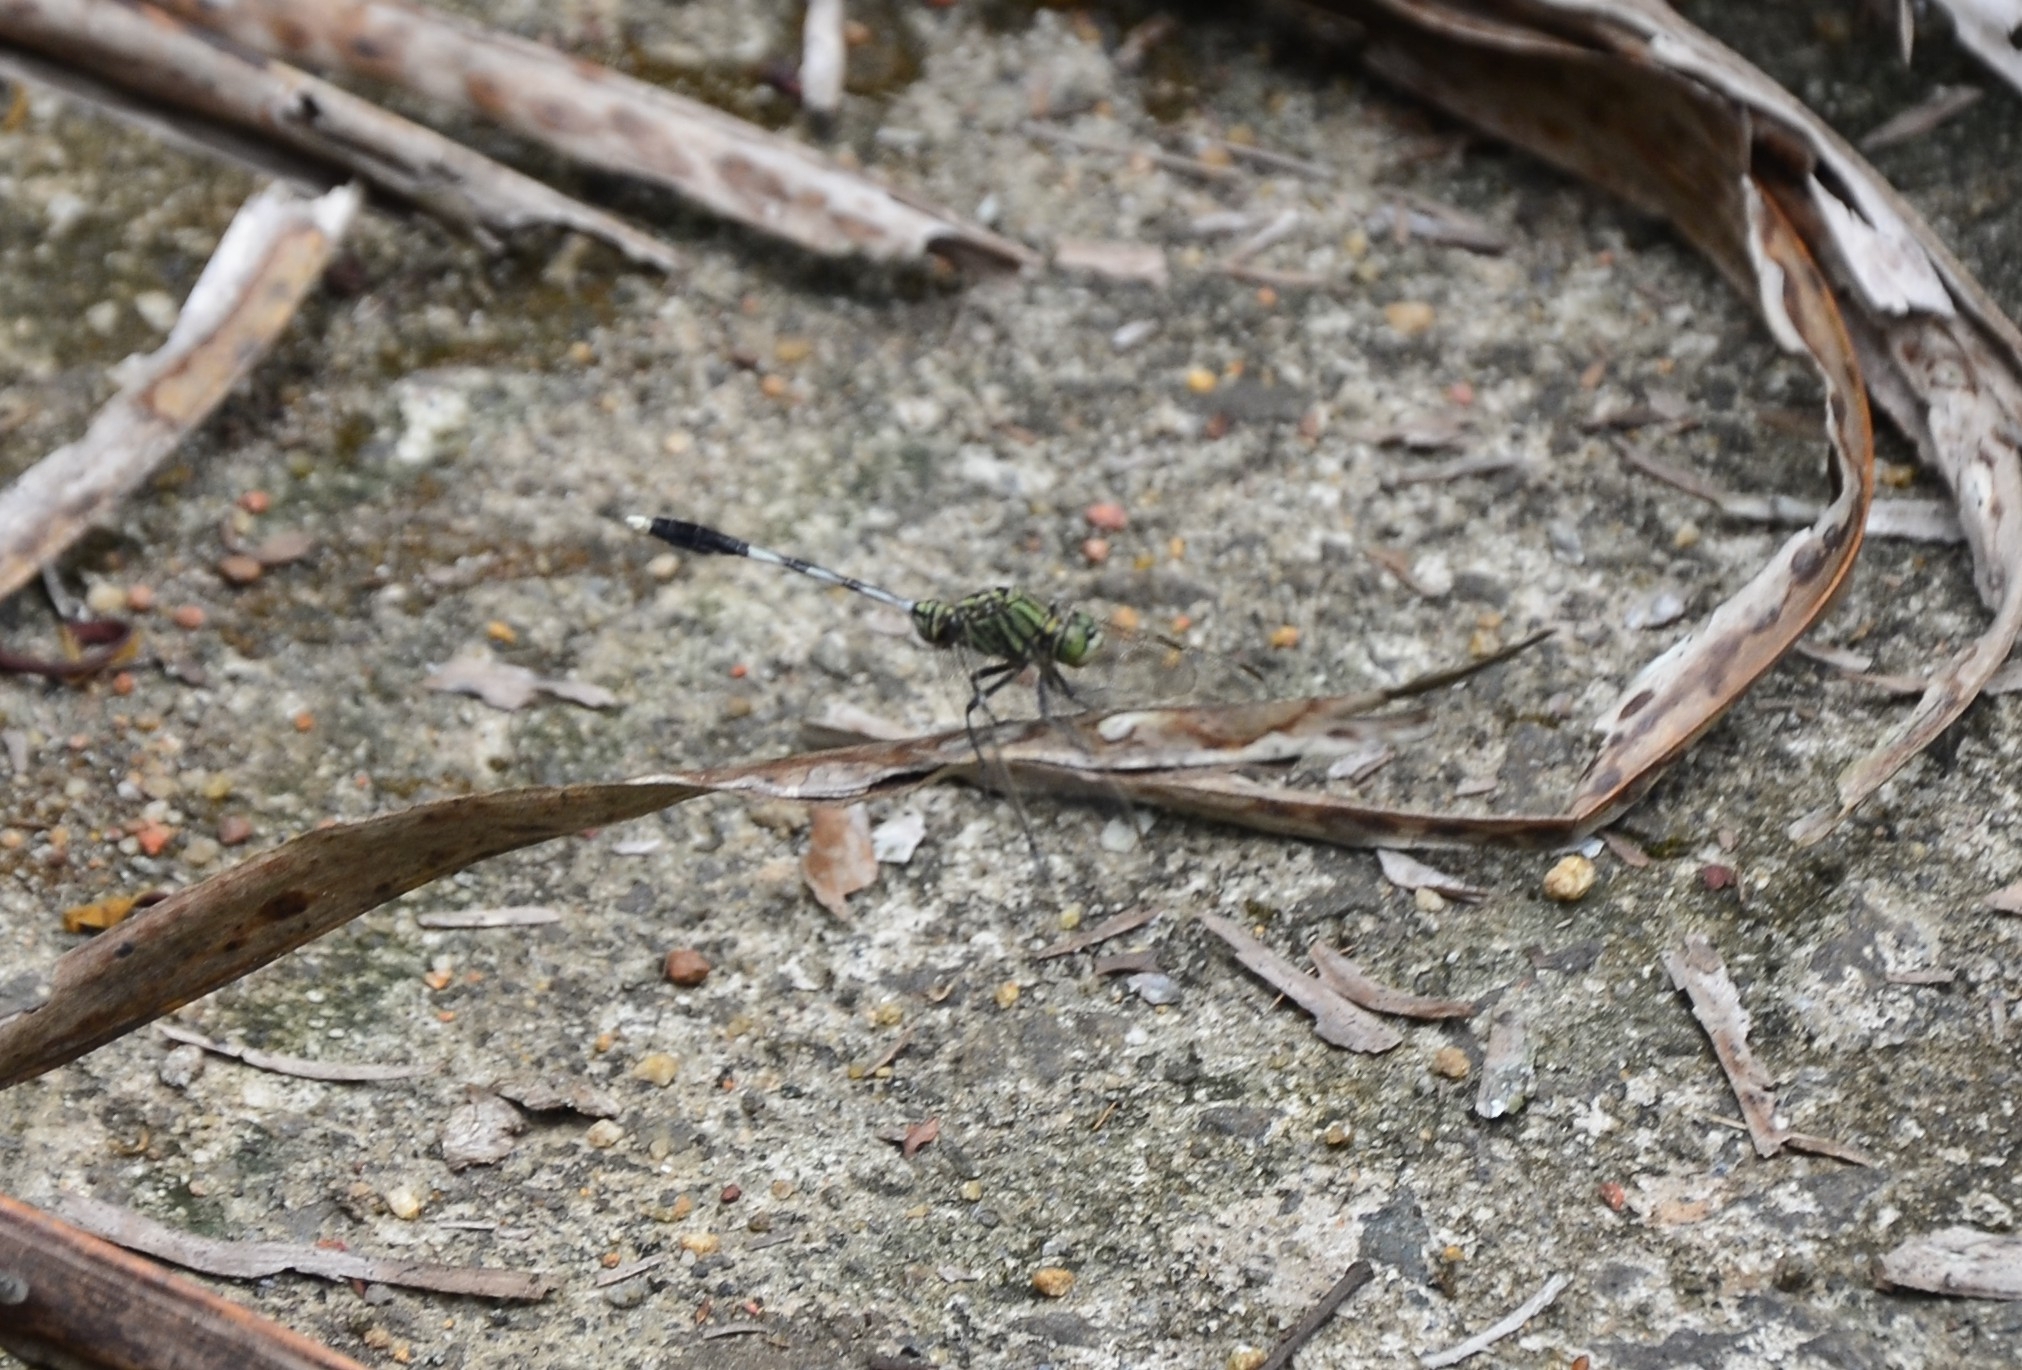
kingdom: Animalia
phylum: Arthropoda
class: Insecta
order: Odonata
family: Libellulidae
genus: Orthetrum
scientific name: Orthetrum sabina
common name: Slender skimmer
